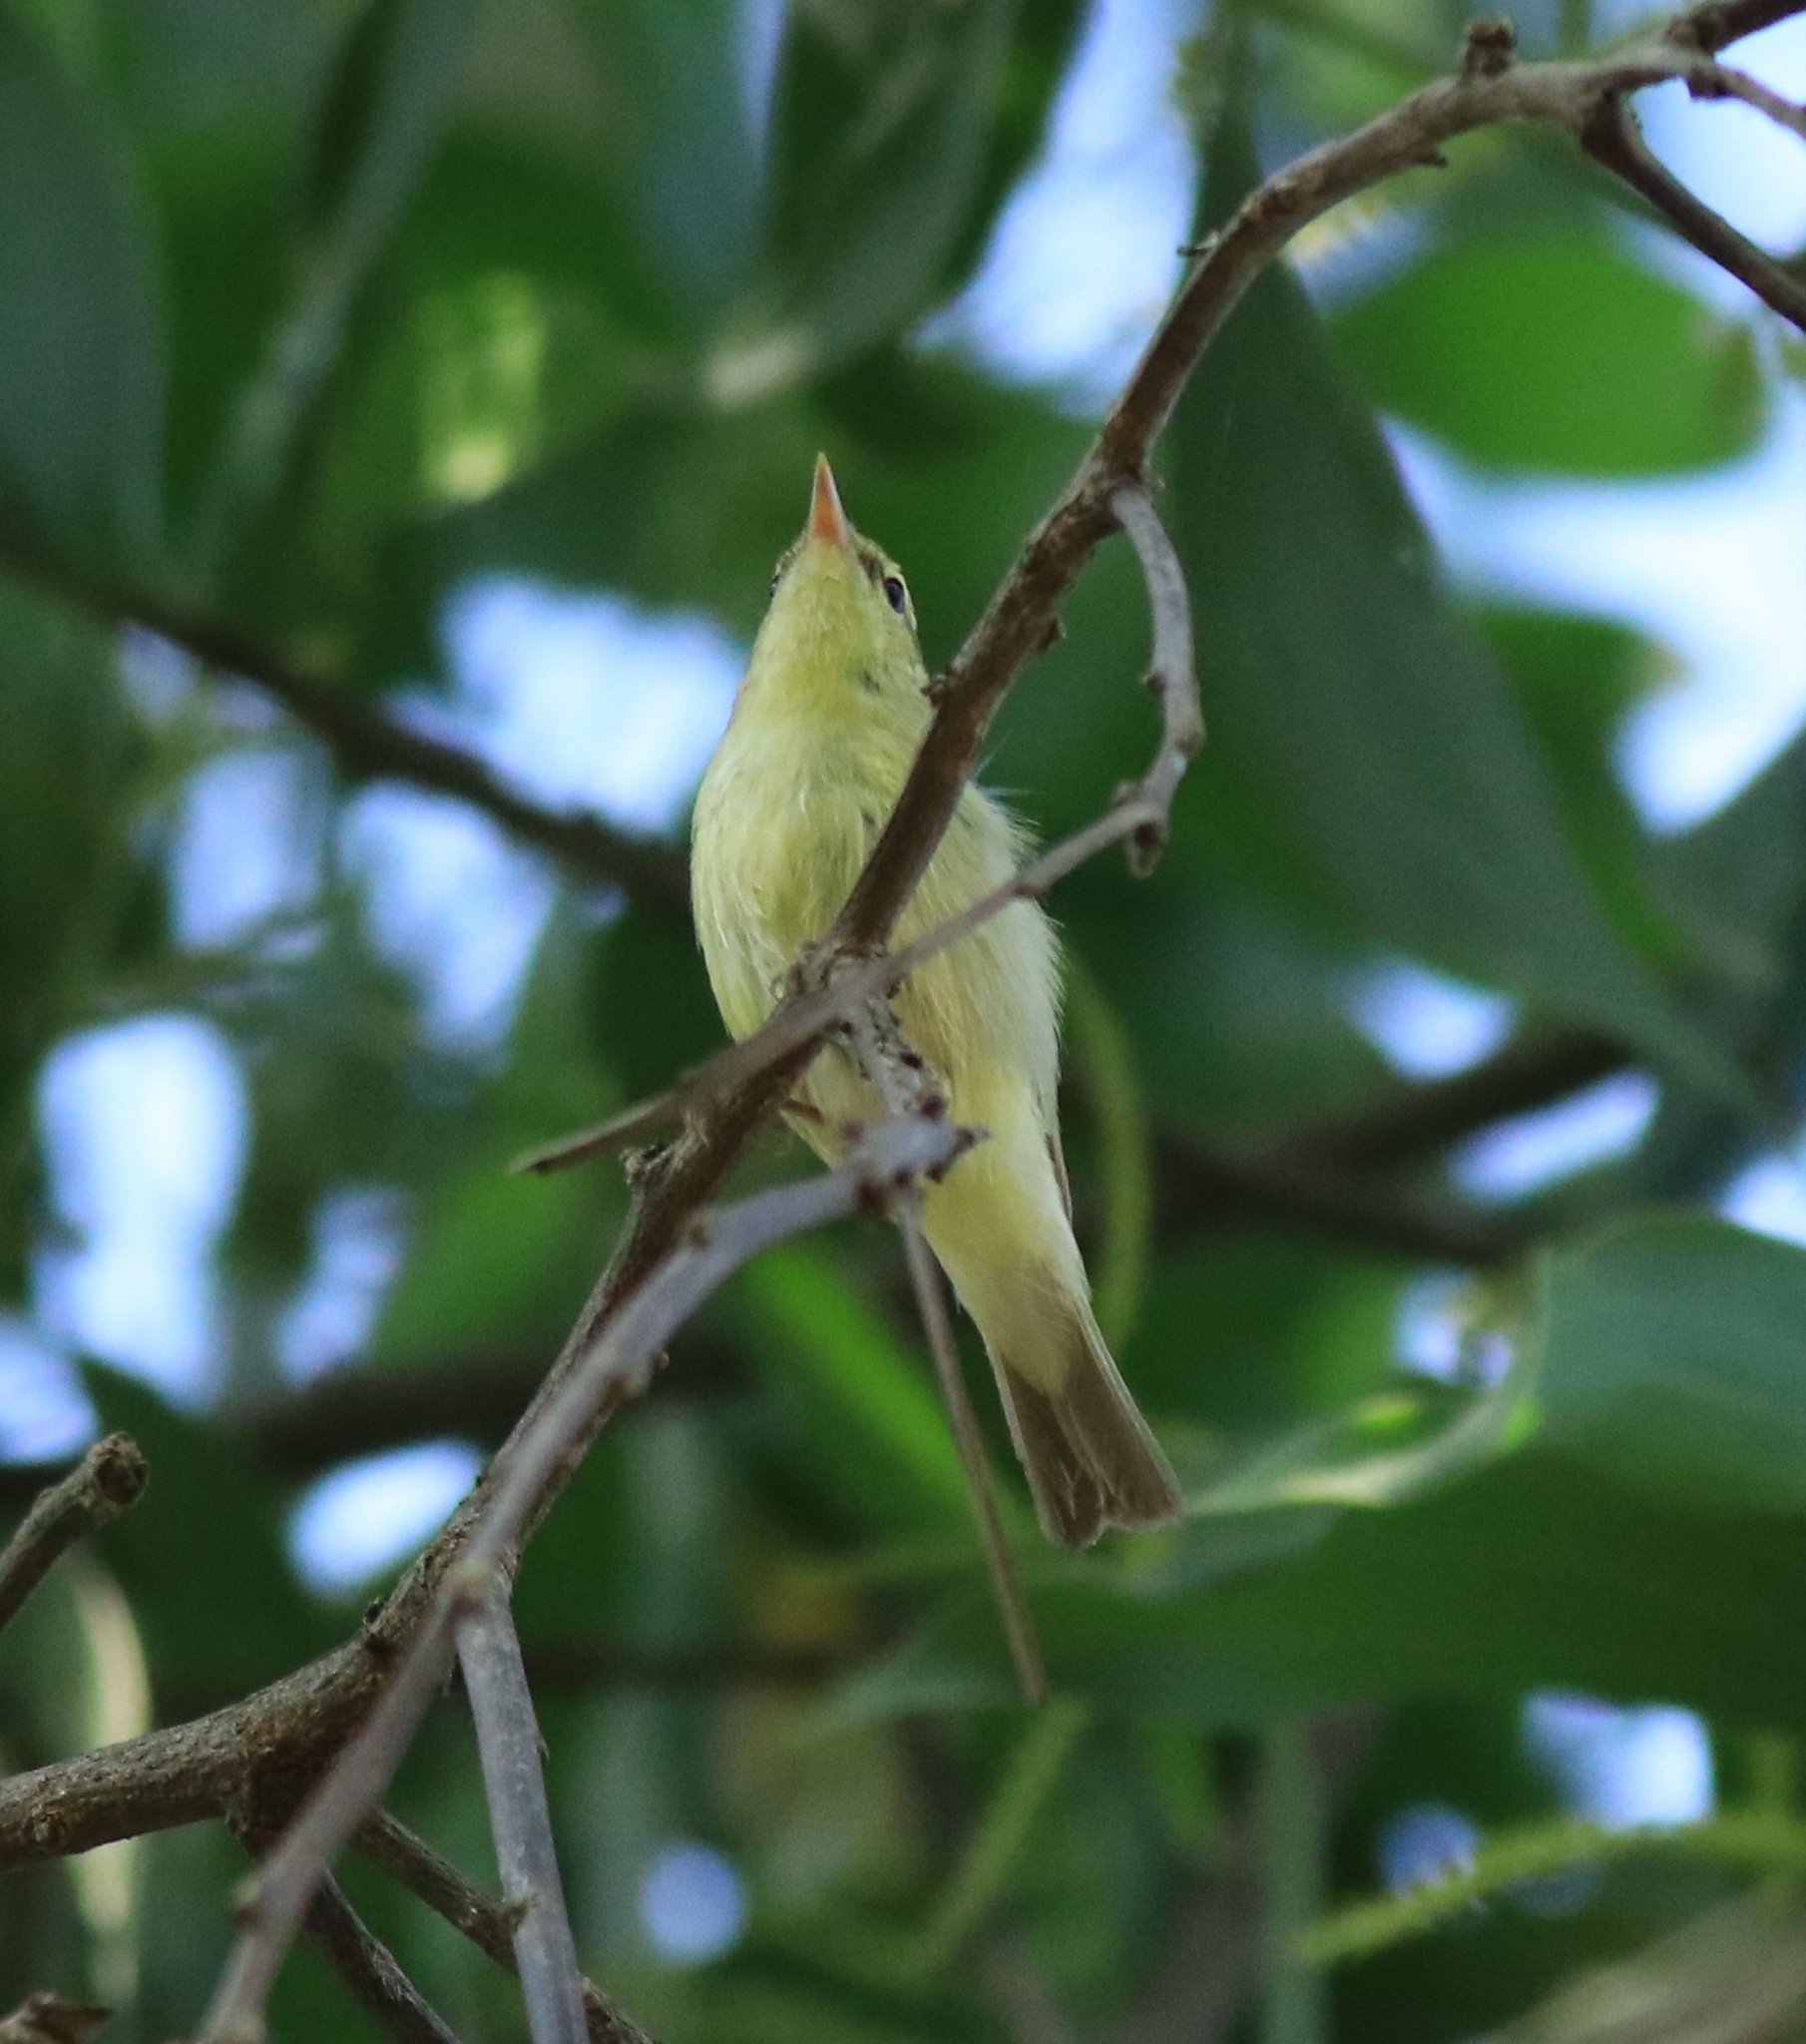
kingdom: Animalia
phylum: Chordata
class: Aves
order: Passeriformes
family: Phylloscopidae
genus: Phylloscopus
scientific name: Phylloscopus nitidus
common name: Green warbler
